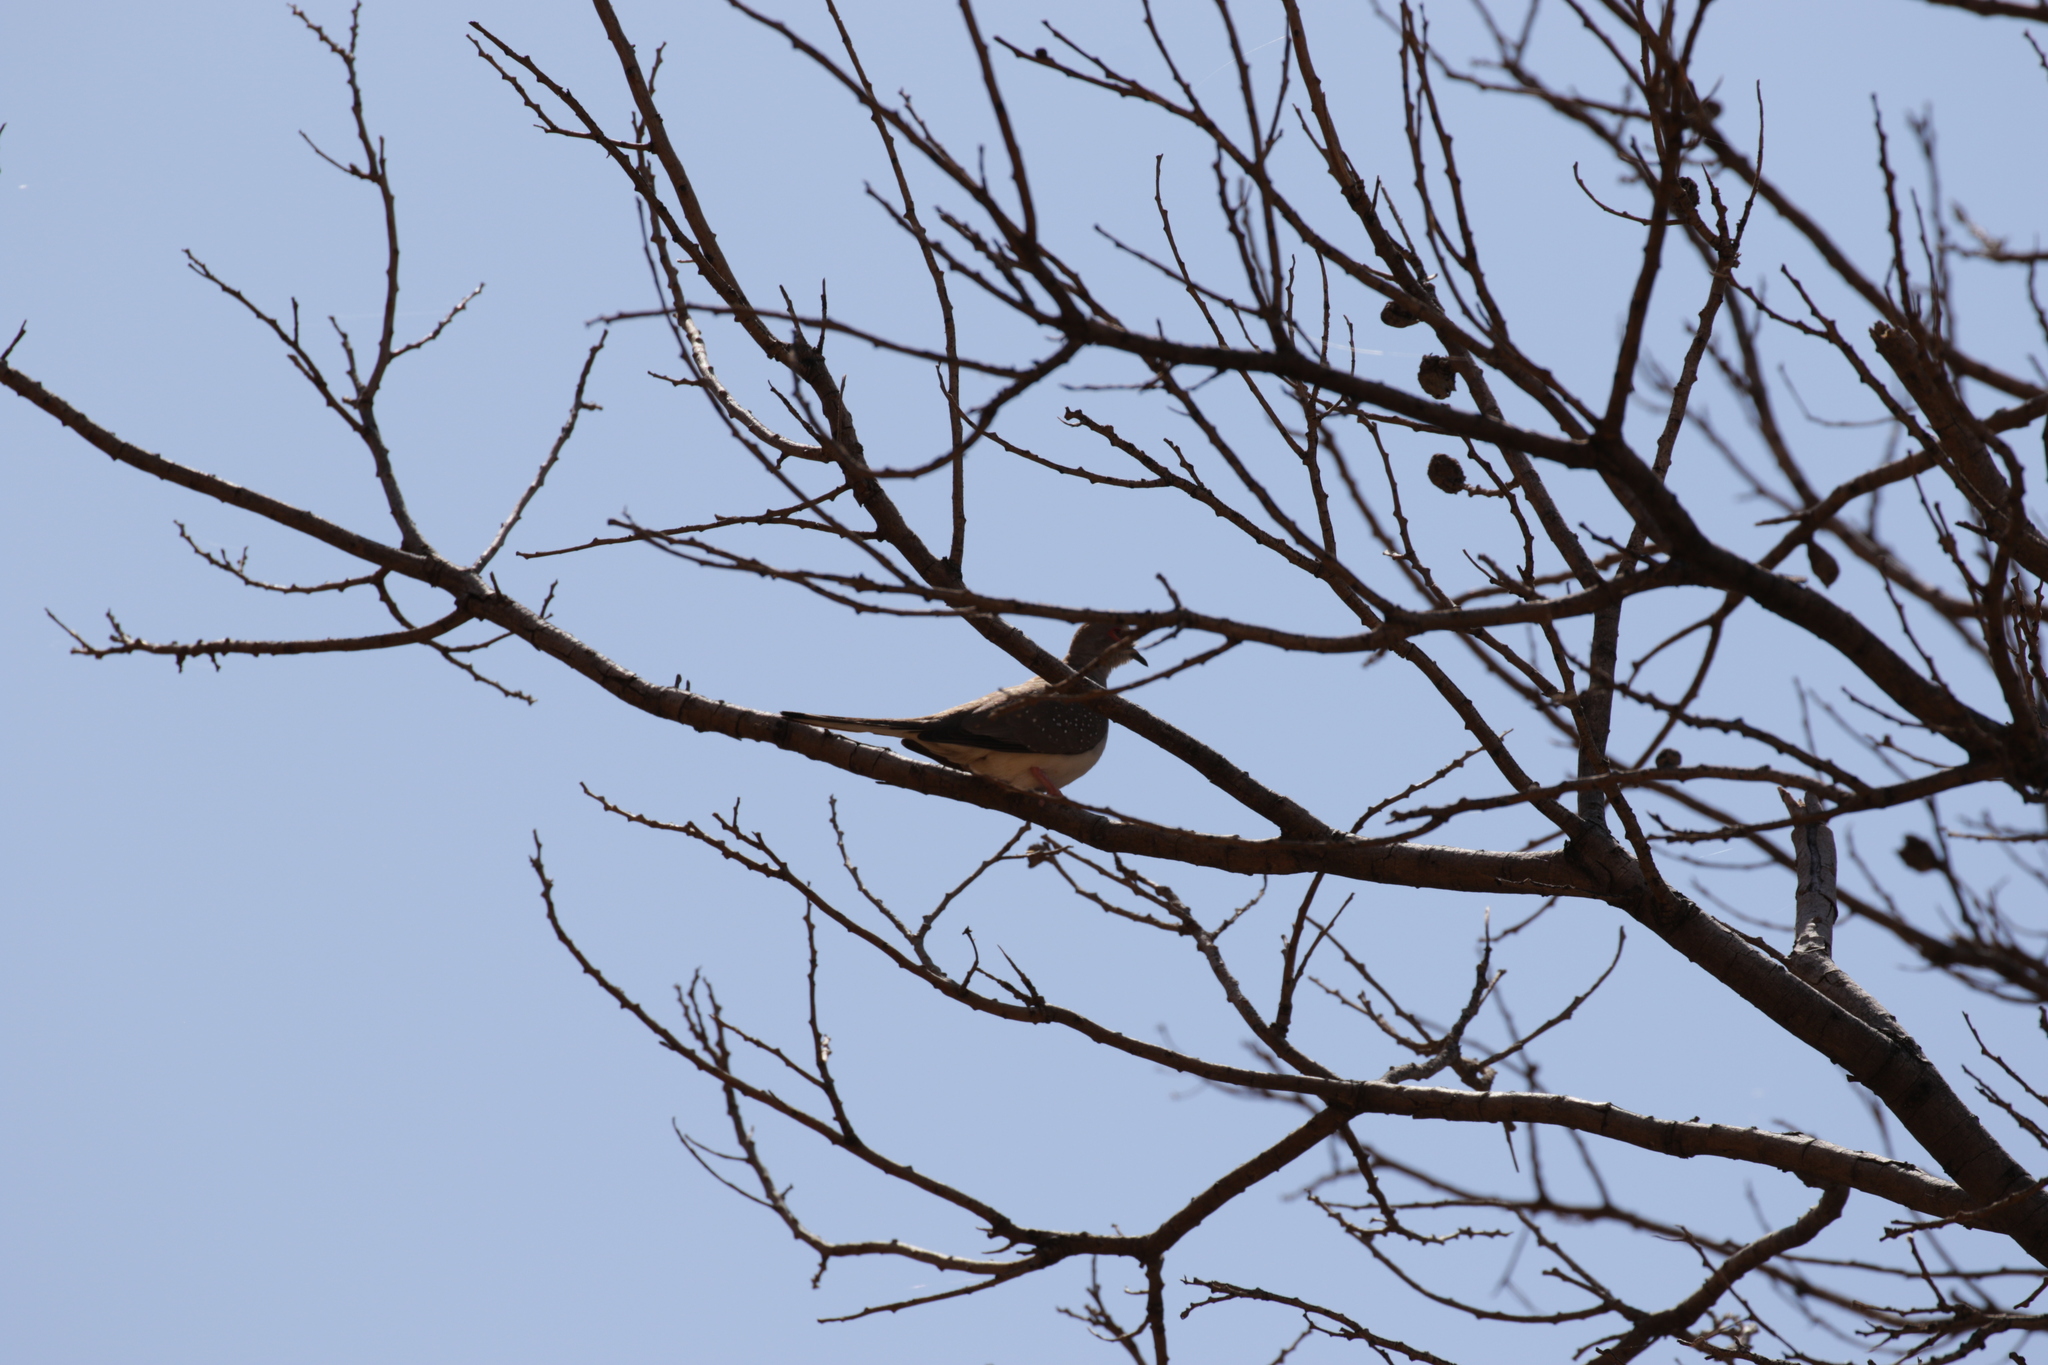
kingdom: Animalia
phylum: Chordata
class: Aves
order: Columbiformes
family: Columbidae
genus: Geopelia
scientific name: Geopelia cuneata
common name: Diamond dove
